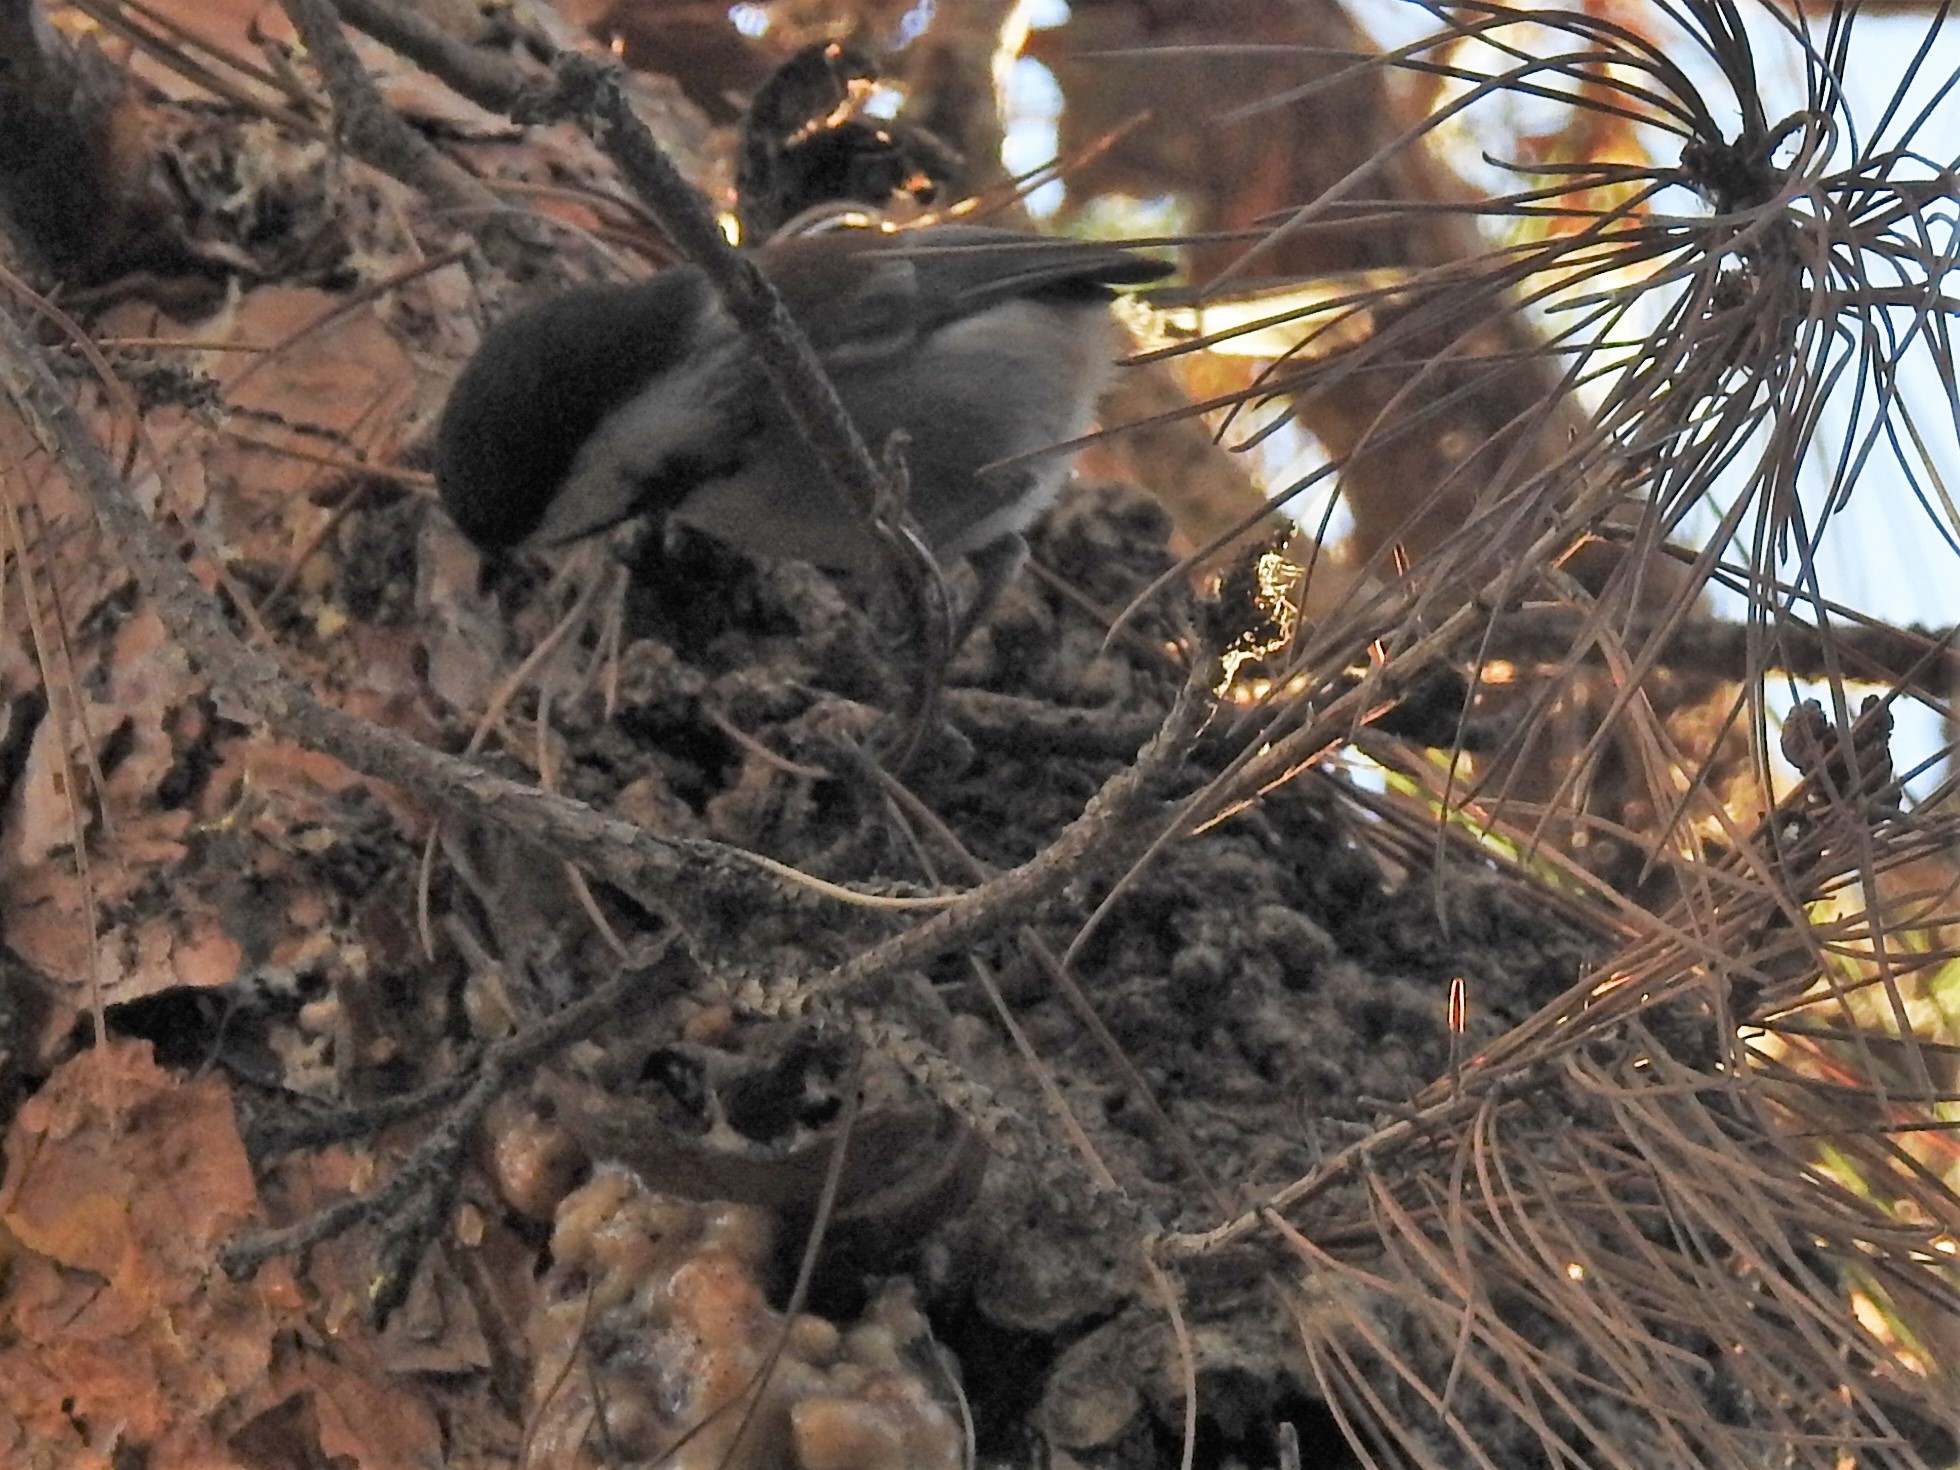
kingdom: Animalia
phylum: Chordata
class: Aves
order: Passeriformes
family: Paridae
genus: Poecile
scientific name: Poecile rufescens
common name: Chestnut-backed chickadee
